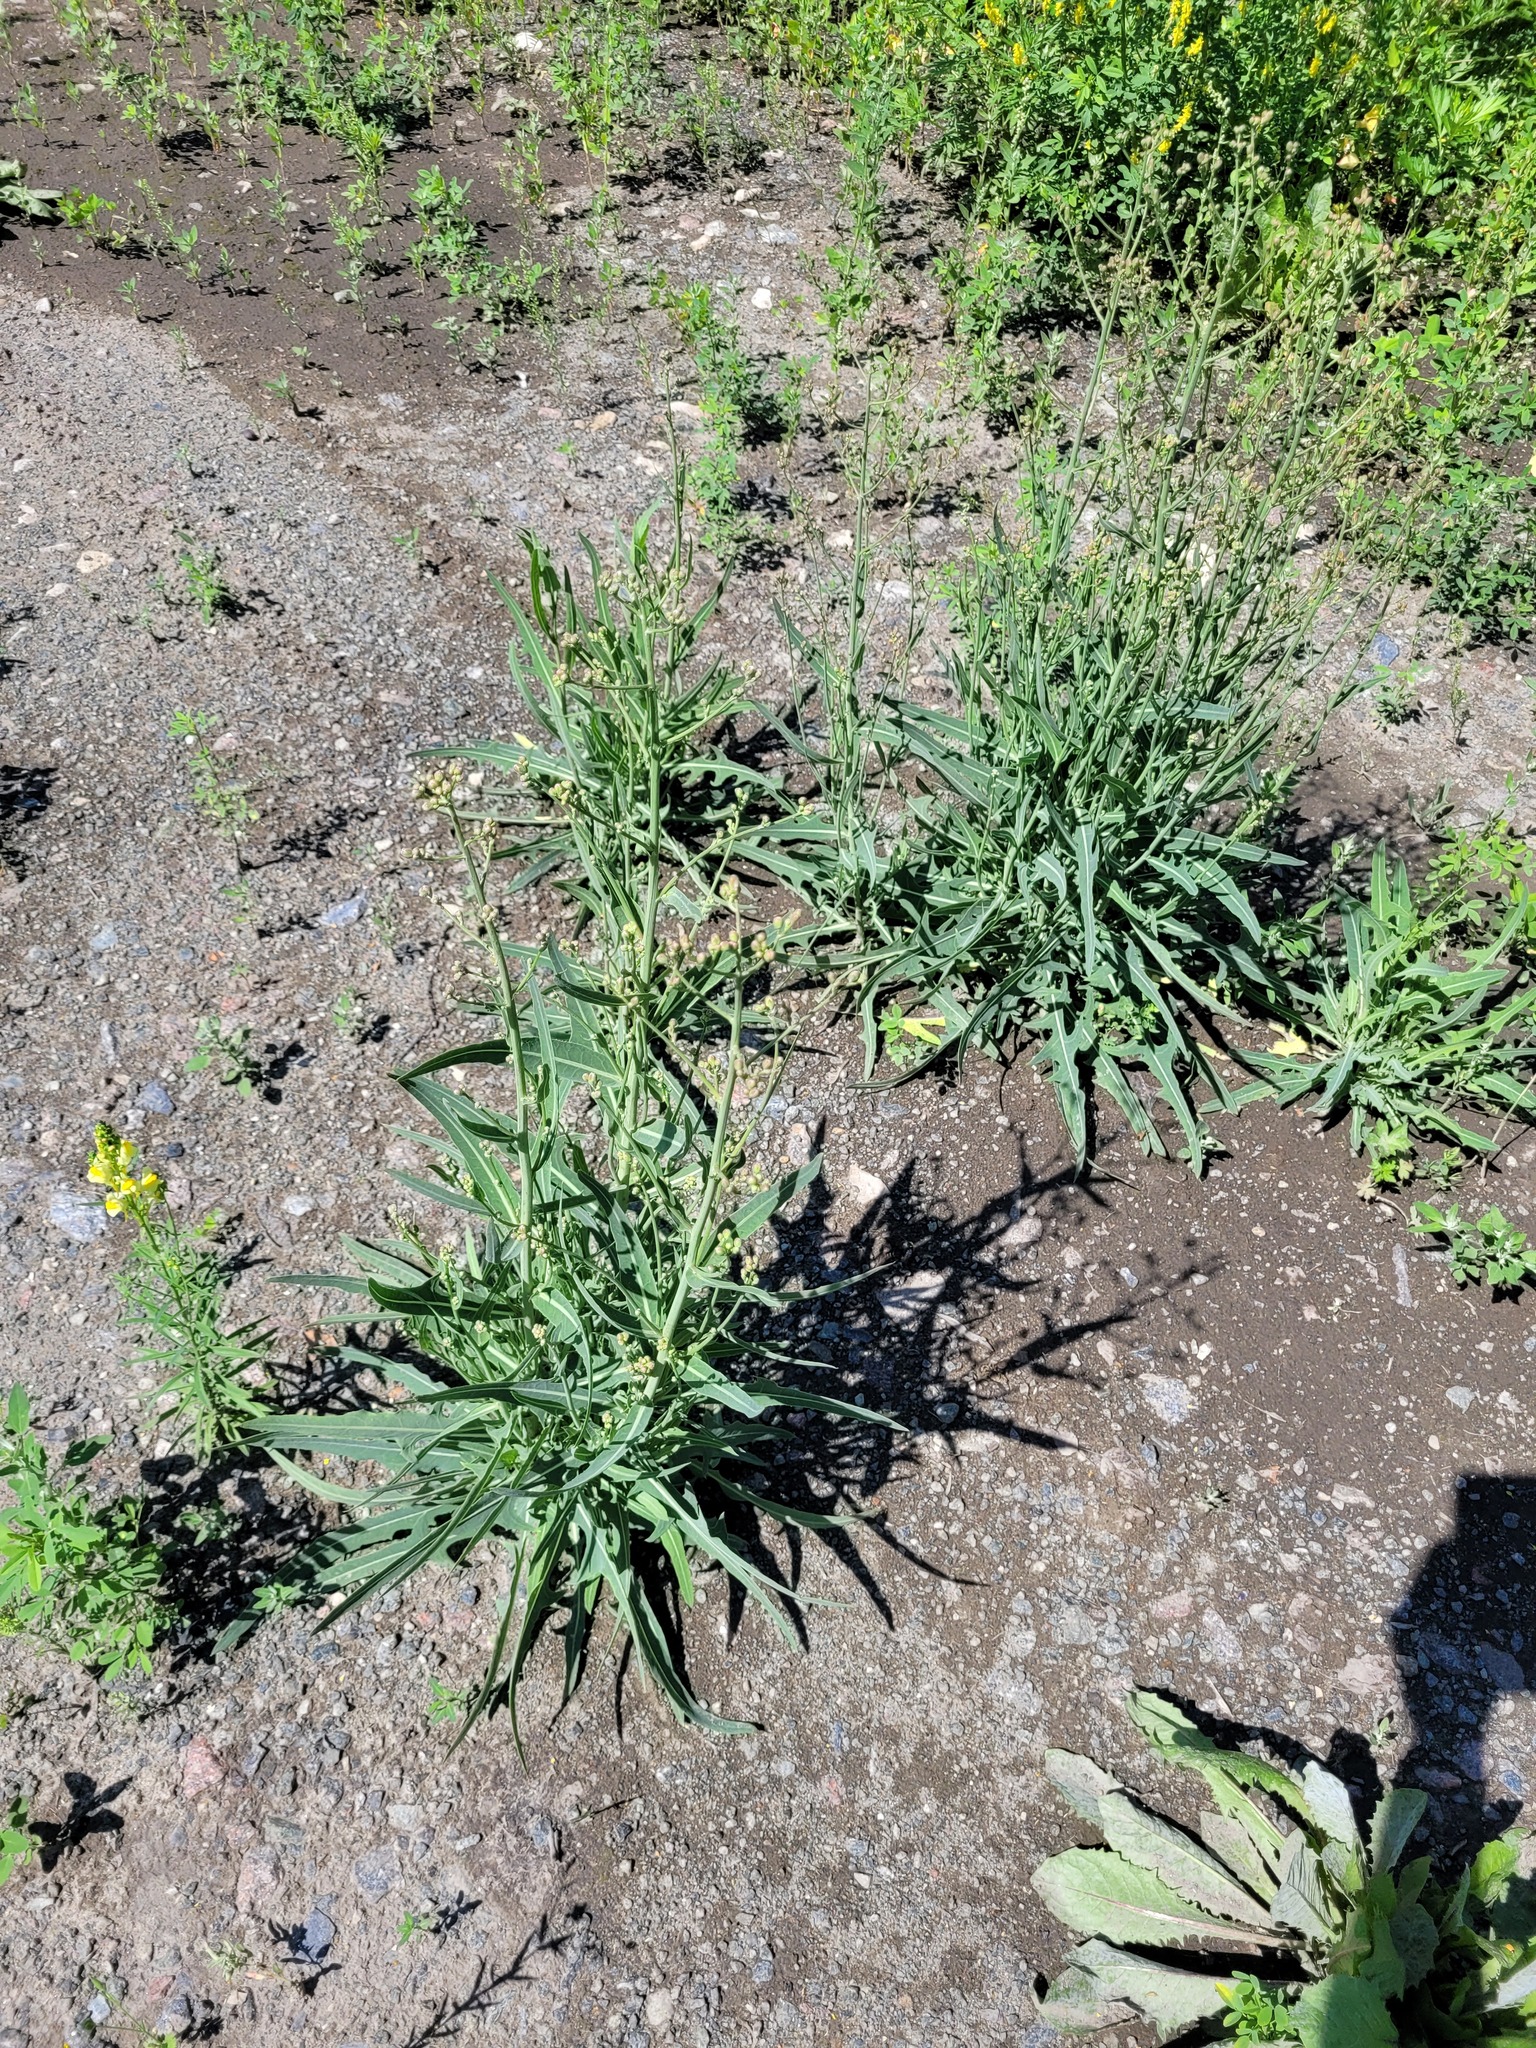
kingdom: Plantae
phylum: Tracheophyta
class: Magnoliopsida
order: Asterales
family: Asteraceae
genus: Lactuca
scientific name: Lactuca tatarica
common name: Blue lettuce
